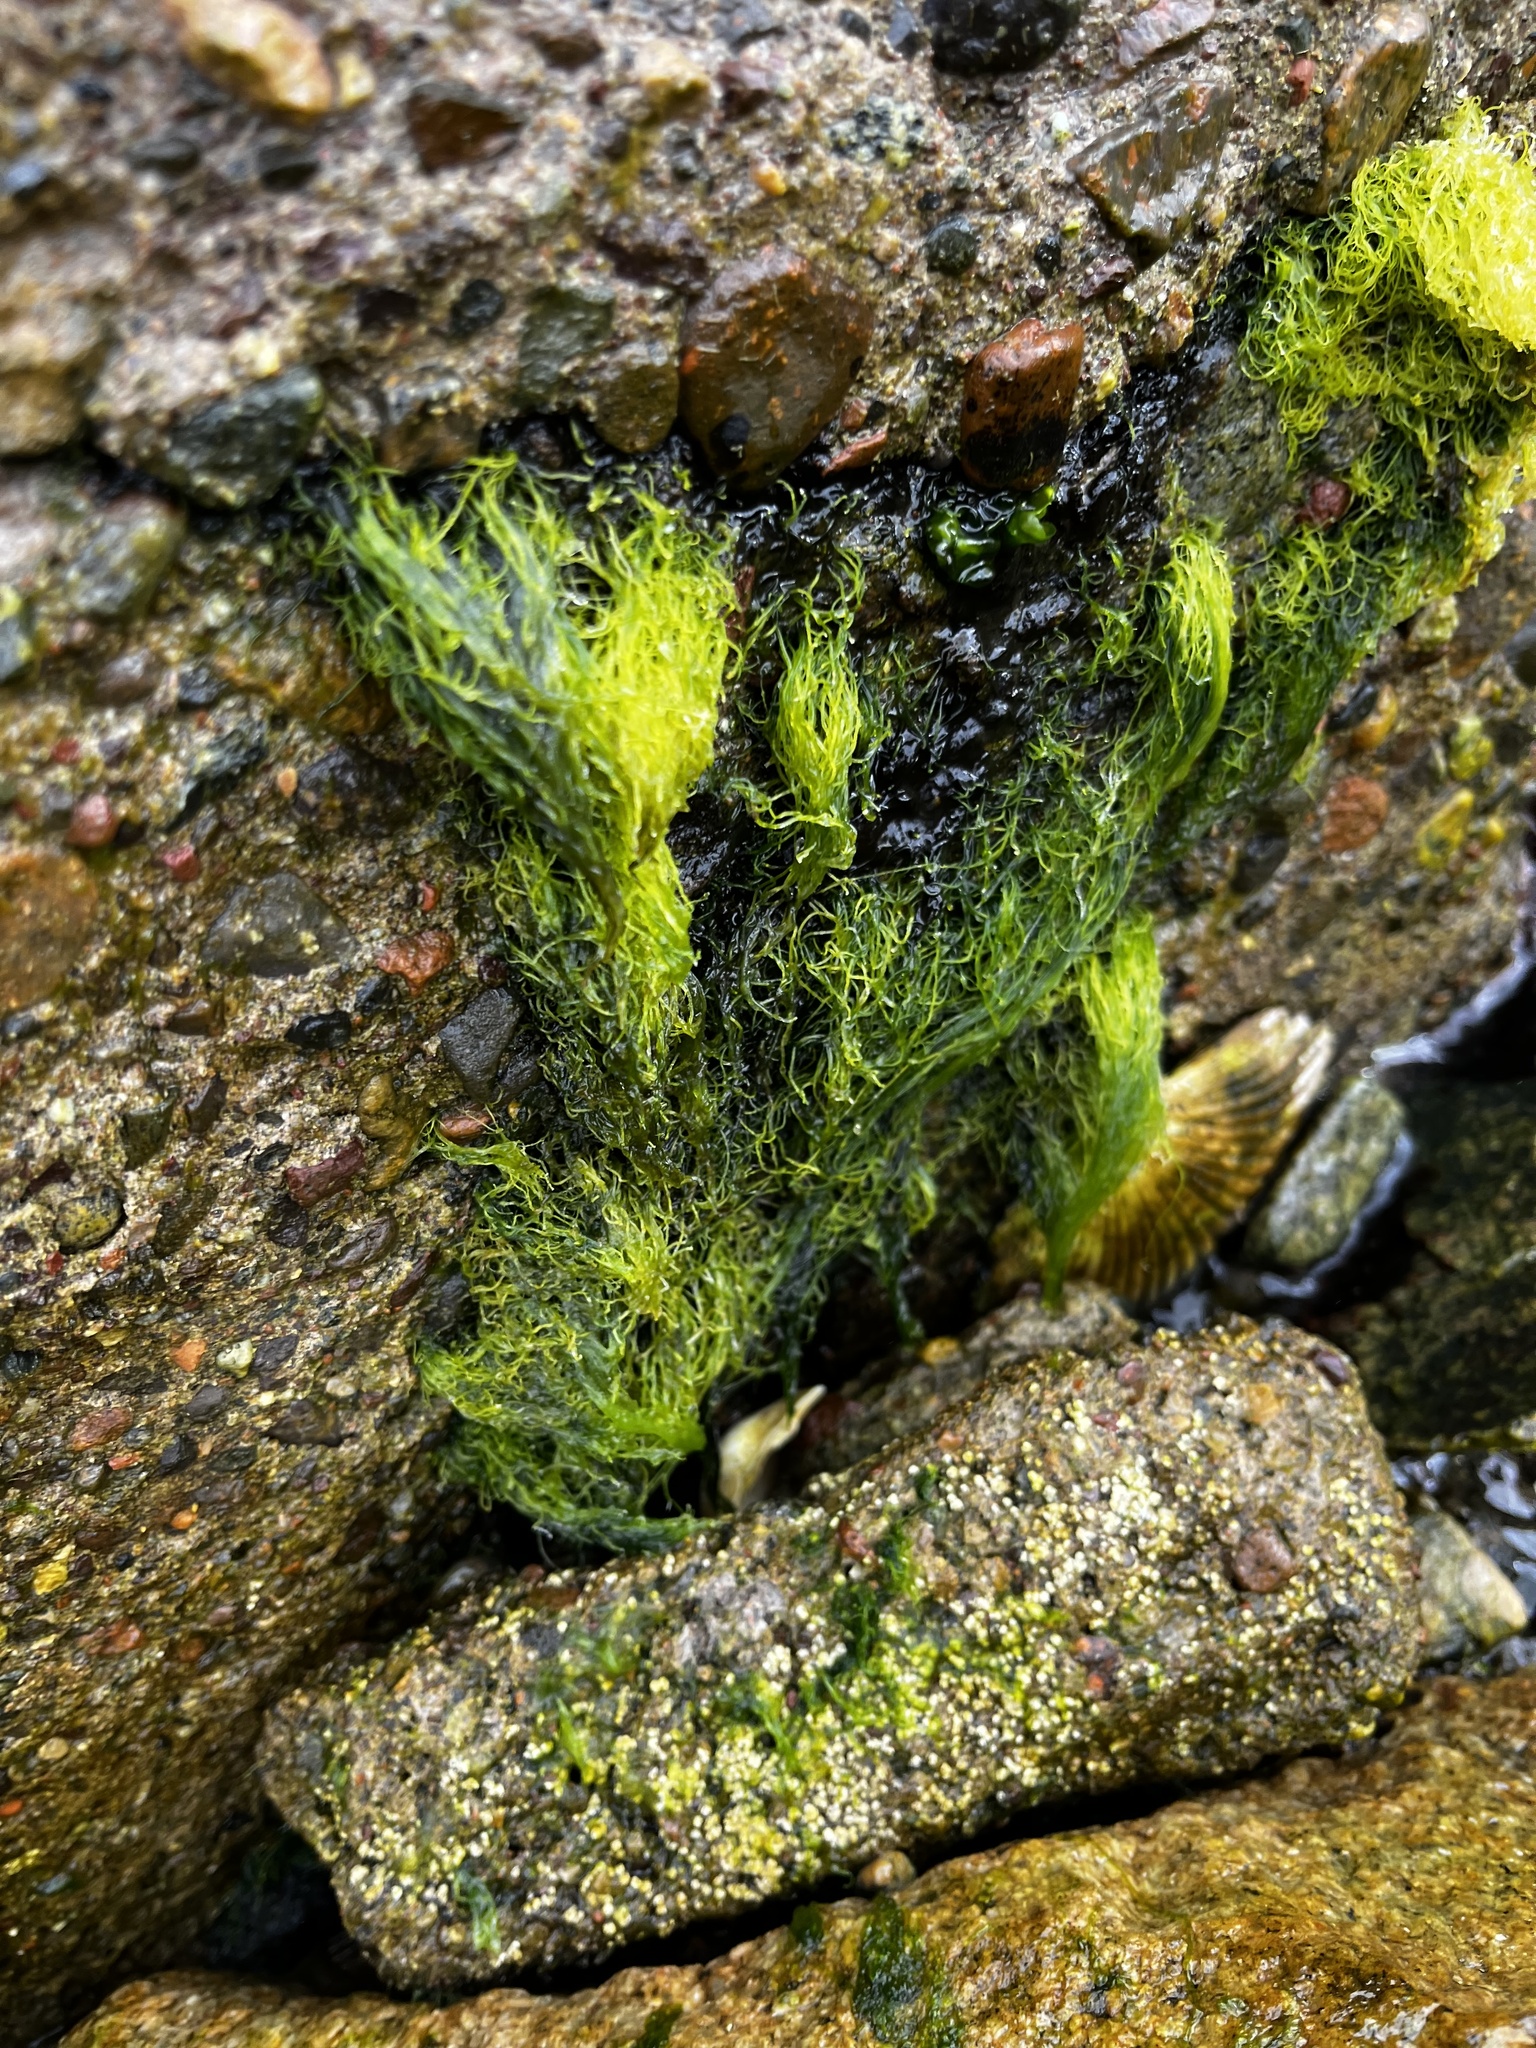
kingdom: Plantae
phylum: Chlorophyta
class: Ulvophyceae
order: Cladophorales
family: Cladophoraceae
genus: Chaetomorpha
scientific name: Chaetomorpha aerea
